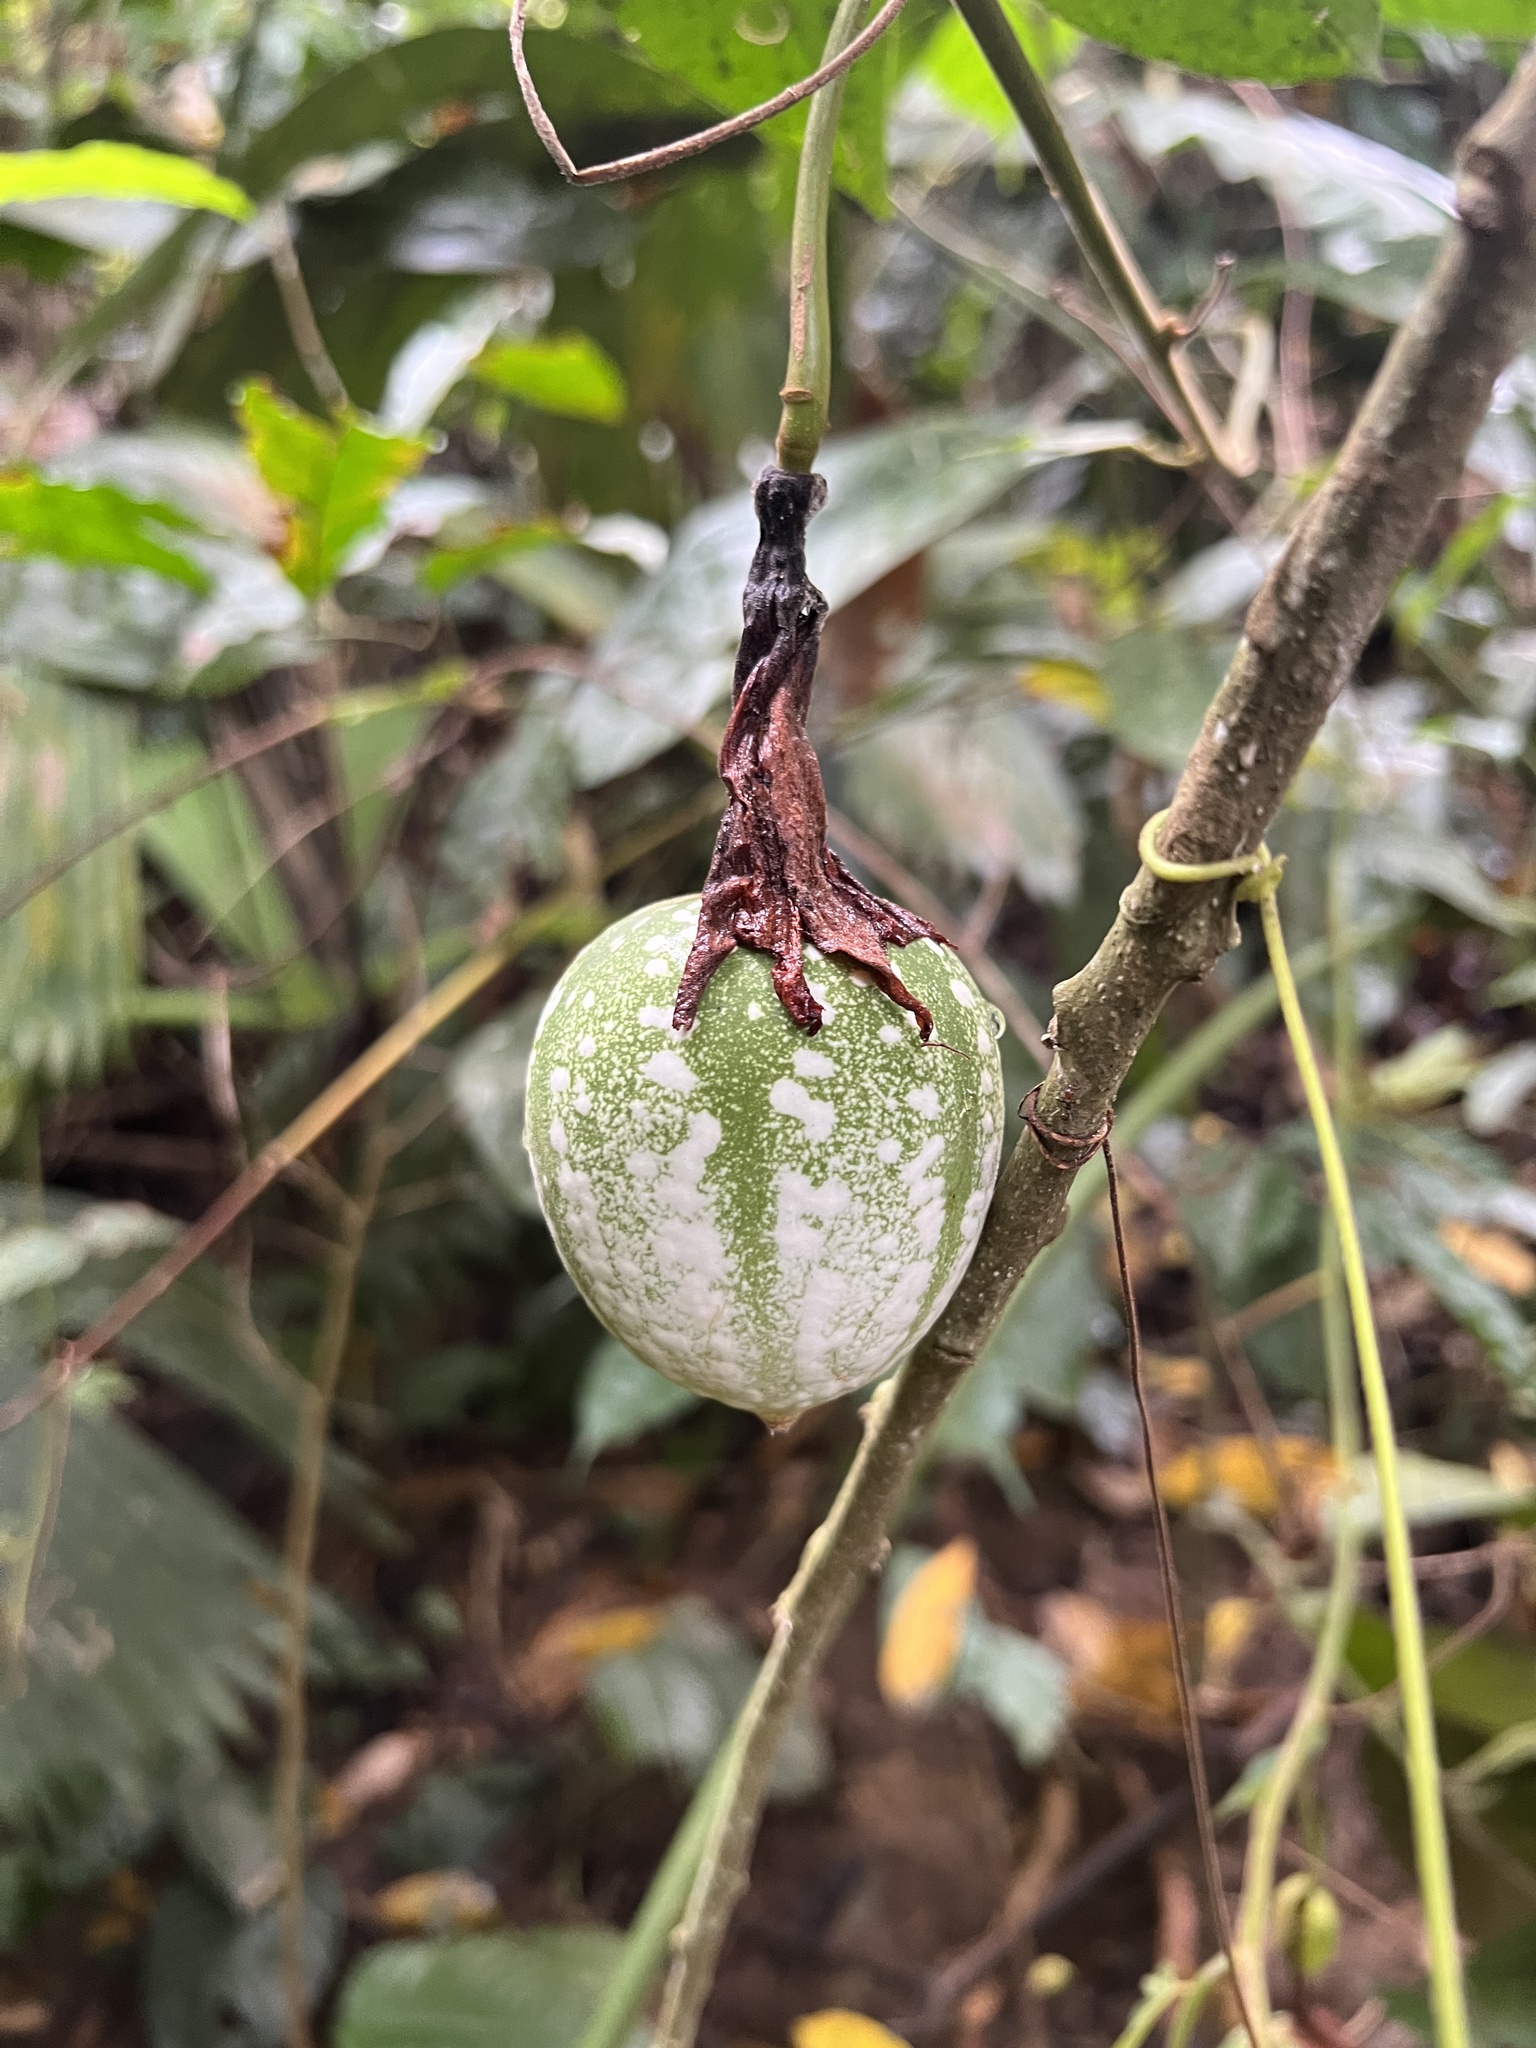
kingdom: Plantae
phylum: Tracheophyta
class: Magnoliopsida
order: Malpighiales
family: Passifloraceae
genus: Passiflora
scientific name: Passiflora vitifolia
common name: Perfumed passionflower
